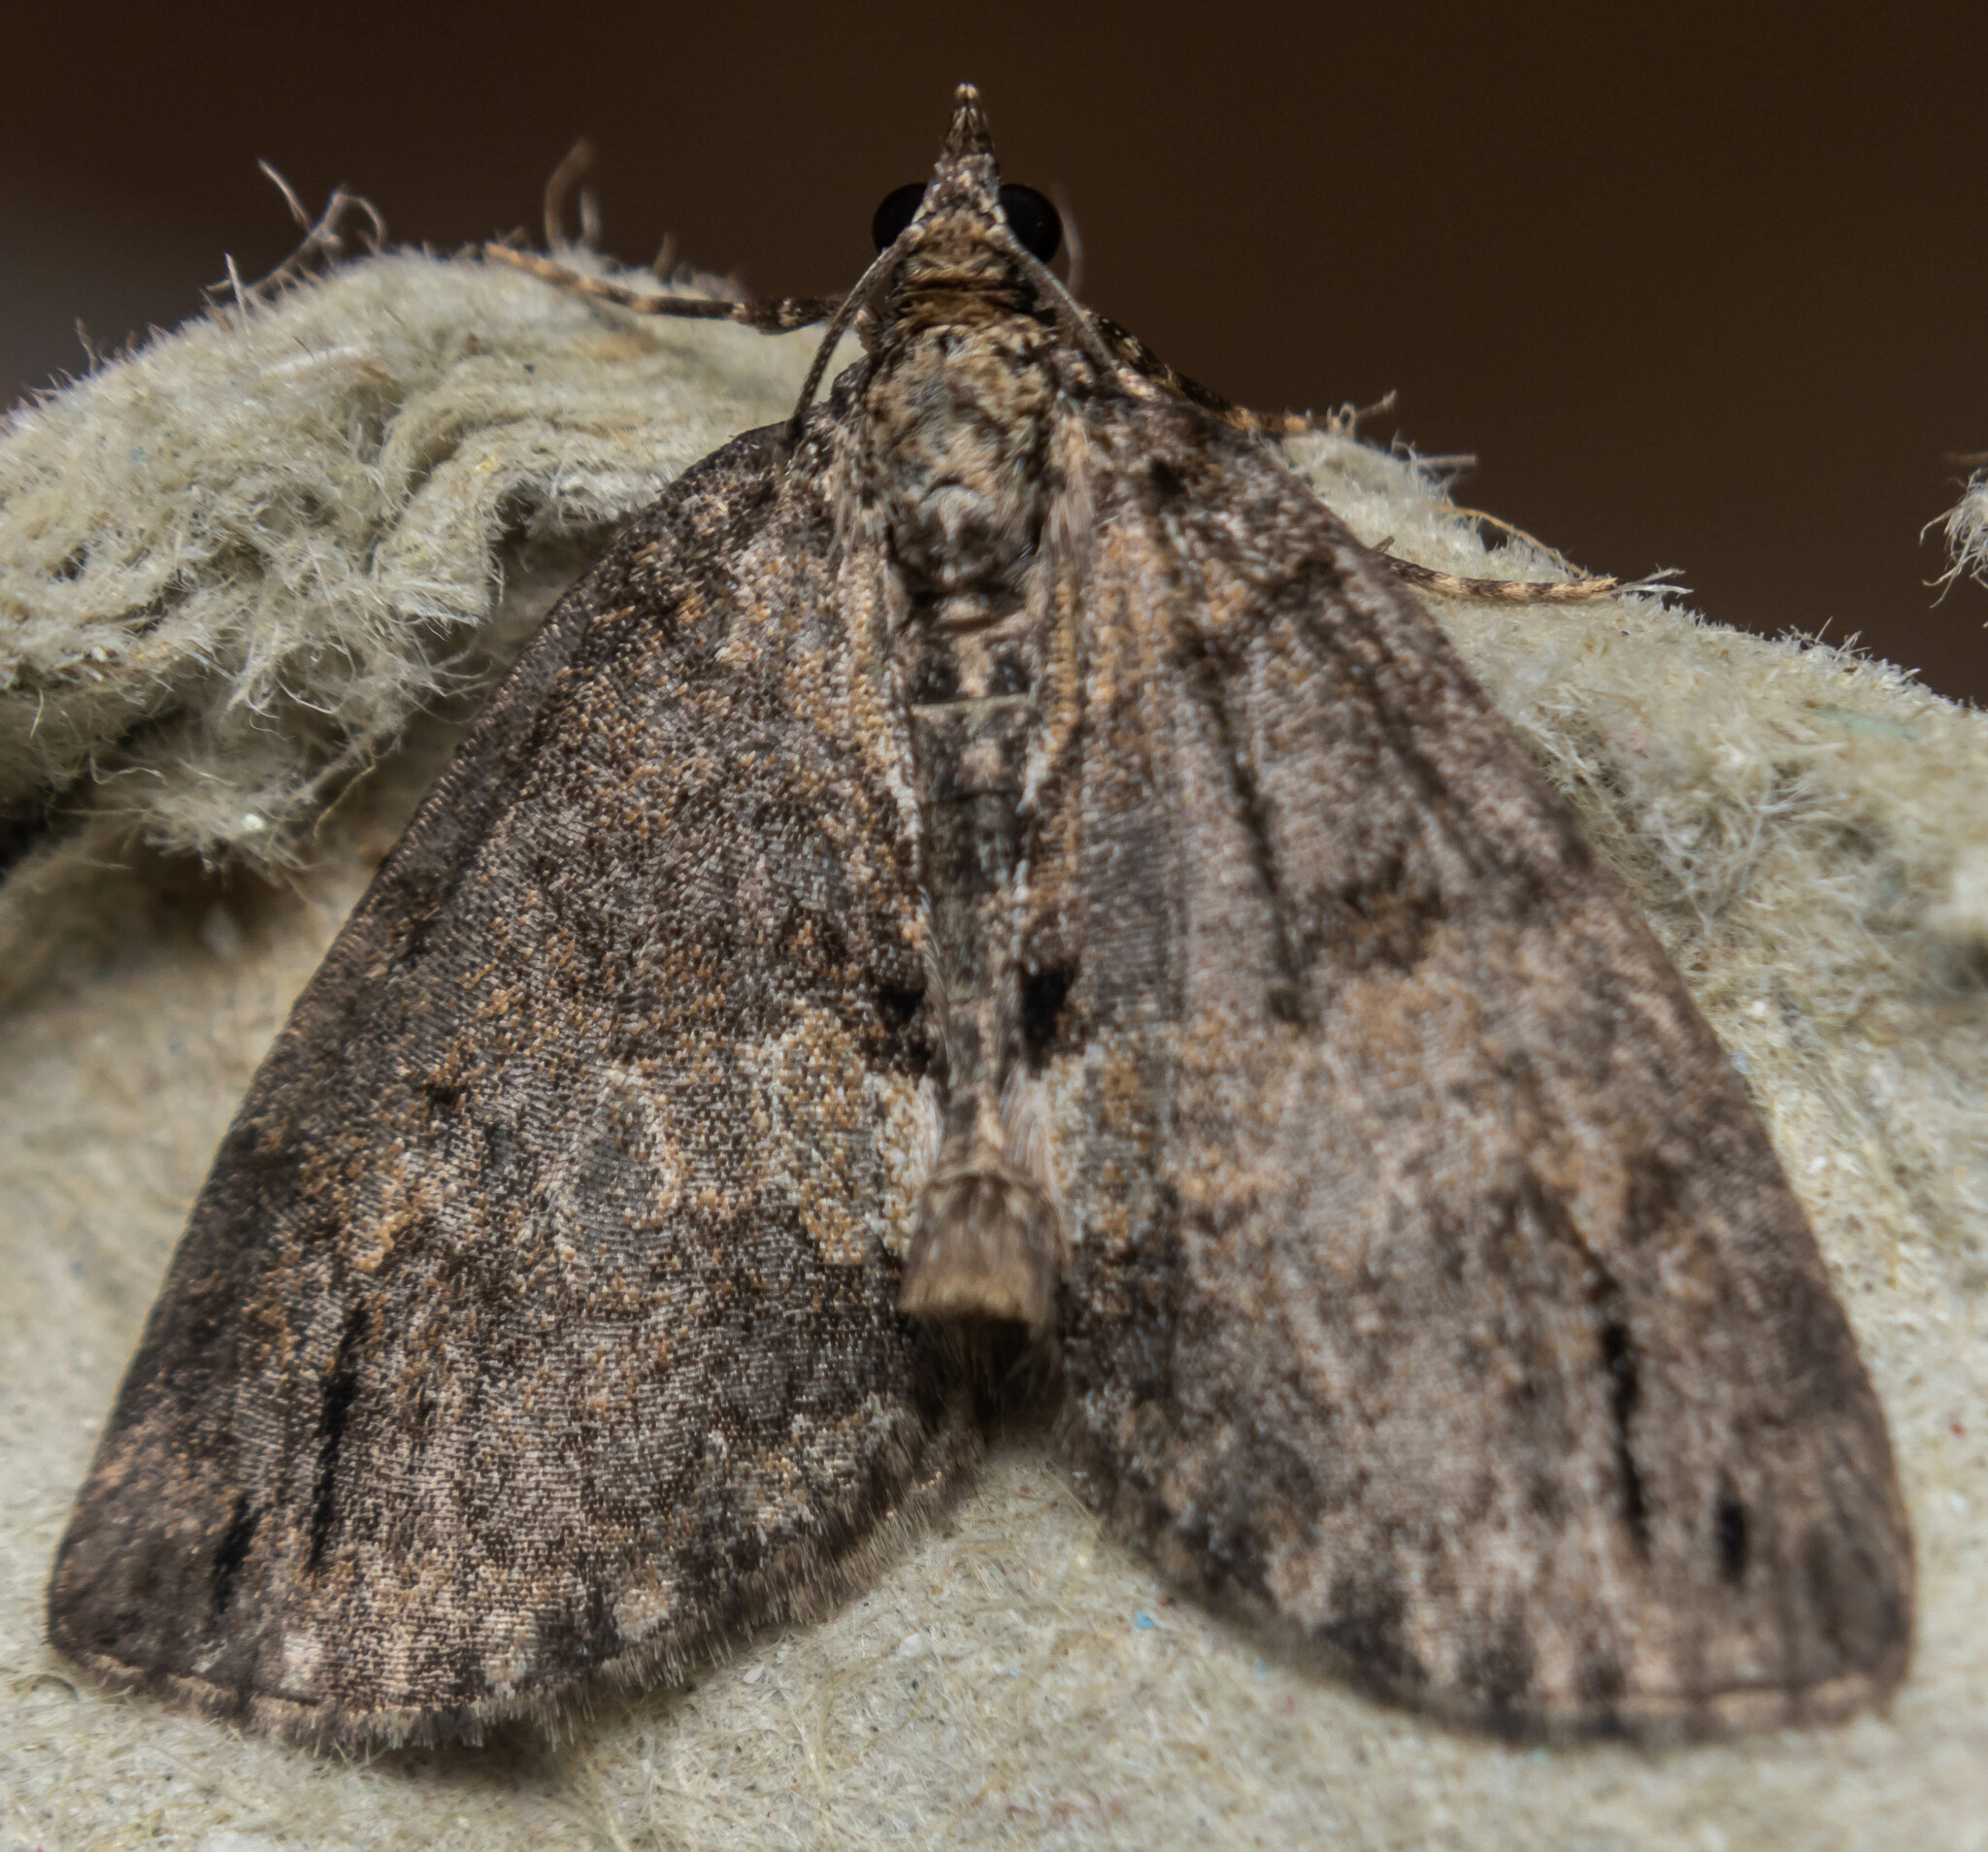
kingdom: Animalia
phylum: Arthropoda
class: Insecta
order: Lepidoptera
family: Geometridae
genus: Hydriomena
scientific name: Hydriomena impluviata
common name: May highflyer
